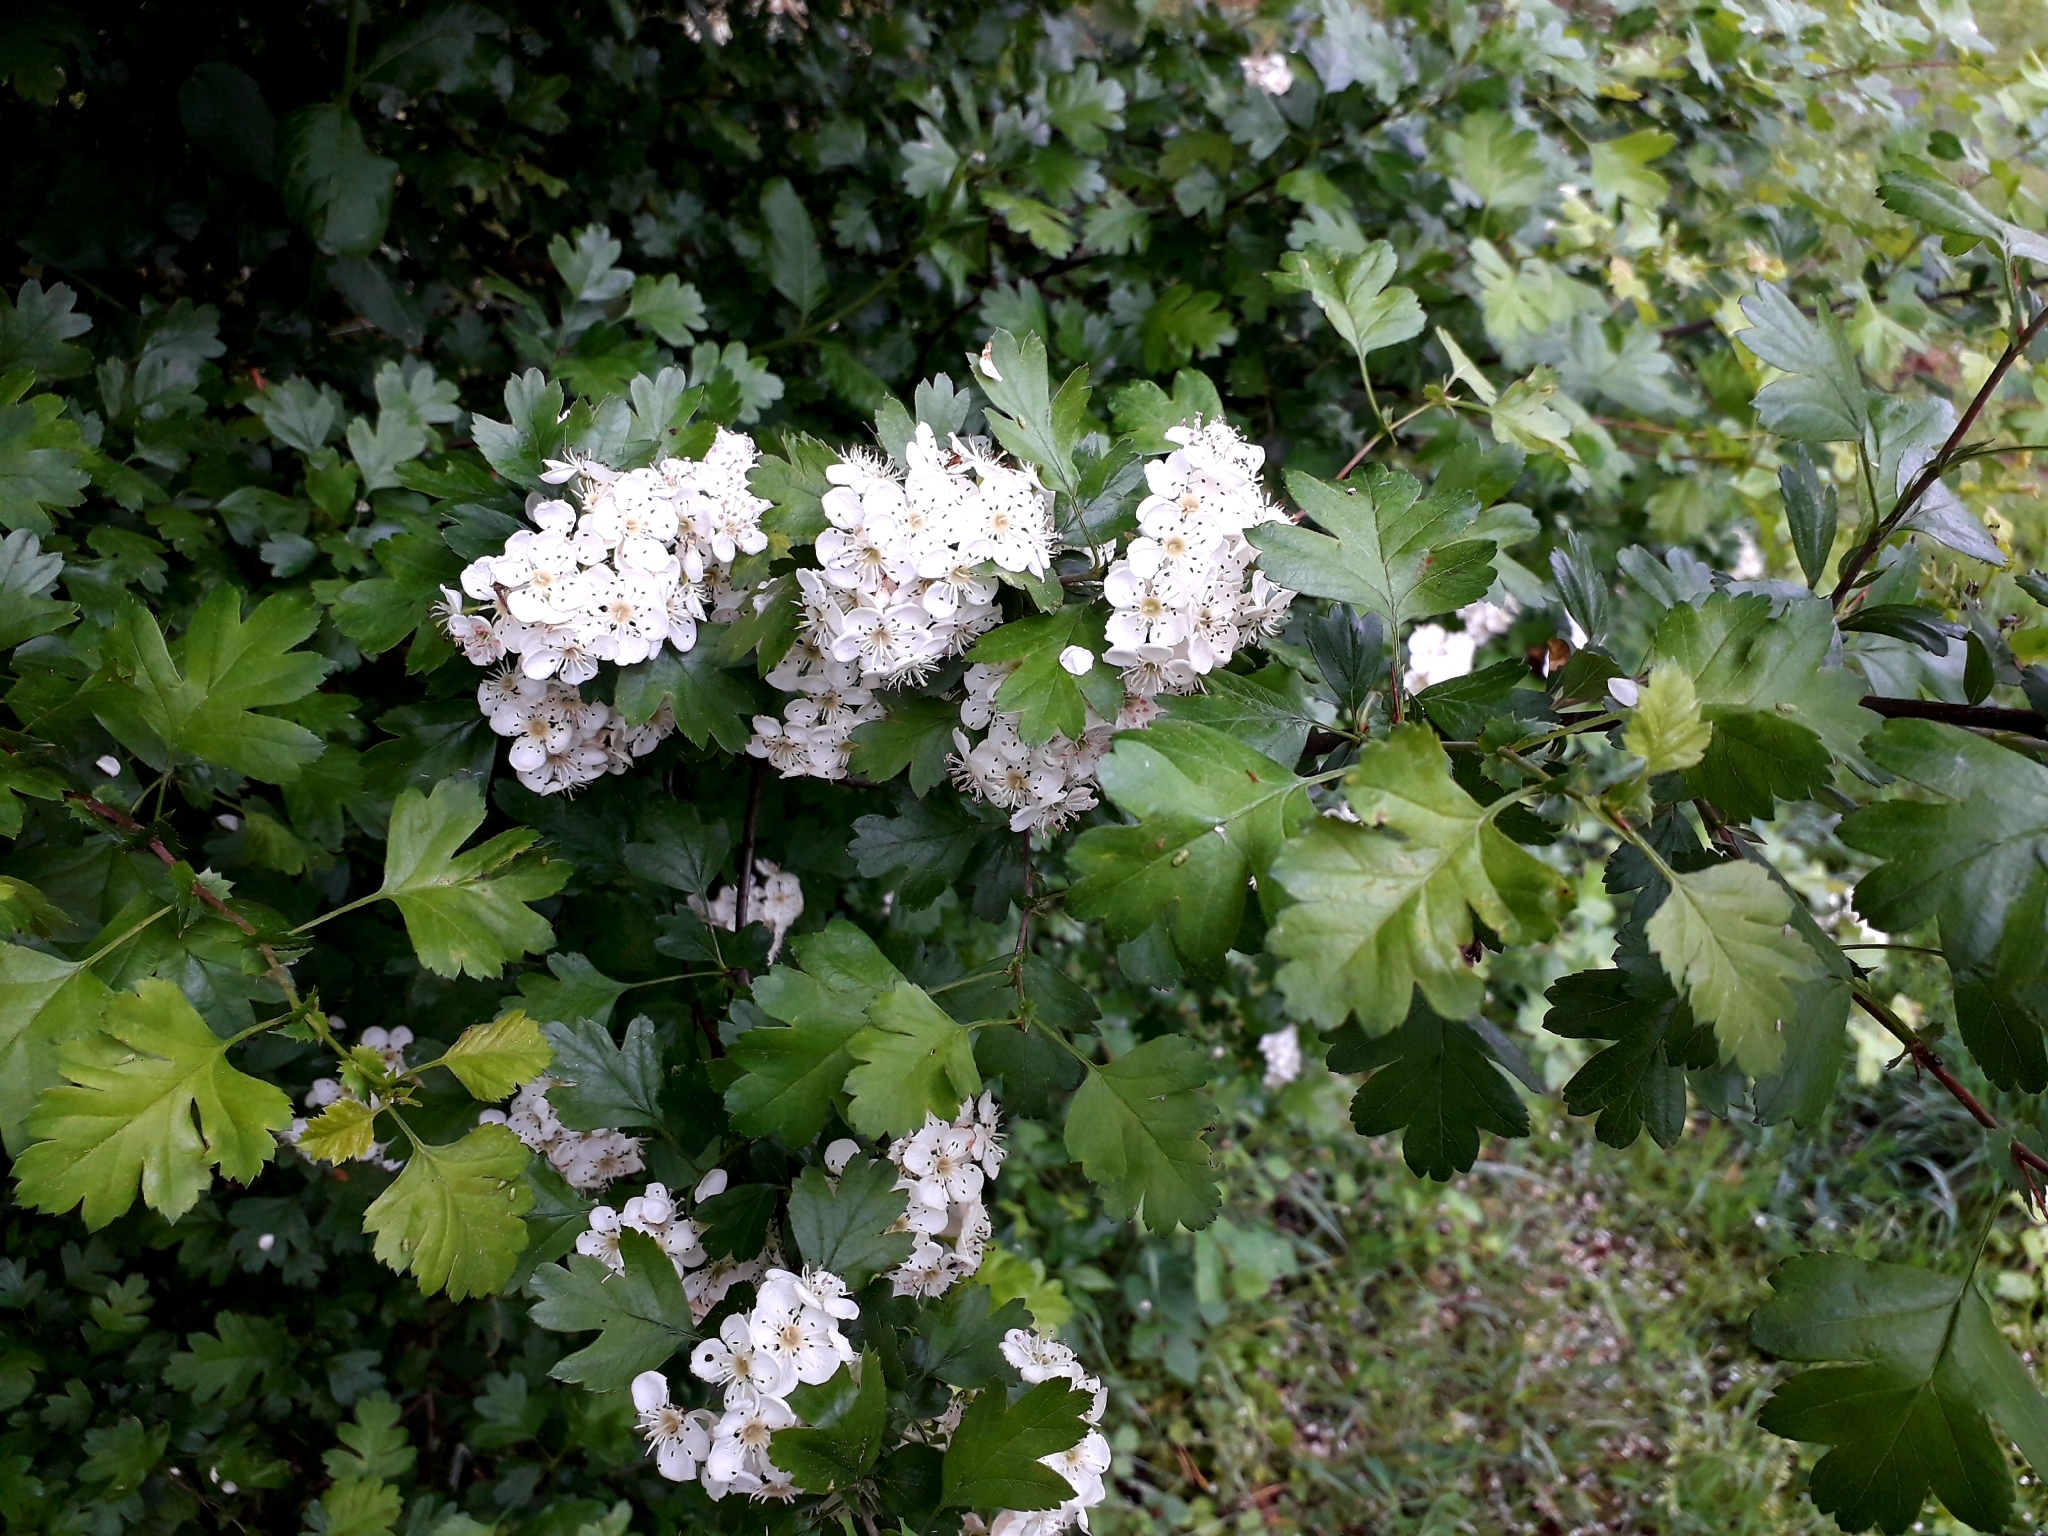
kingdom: Plantae
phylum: Tracheophyta
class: Magnoliopsida
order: Rosales
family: Rosaceae
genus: Crataegus
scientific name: Crataegus monogyna
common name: Hawthorn
